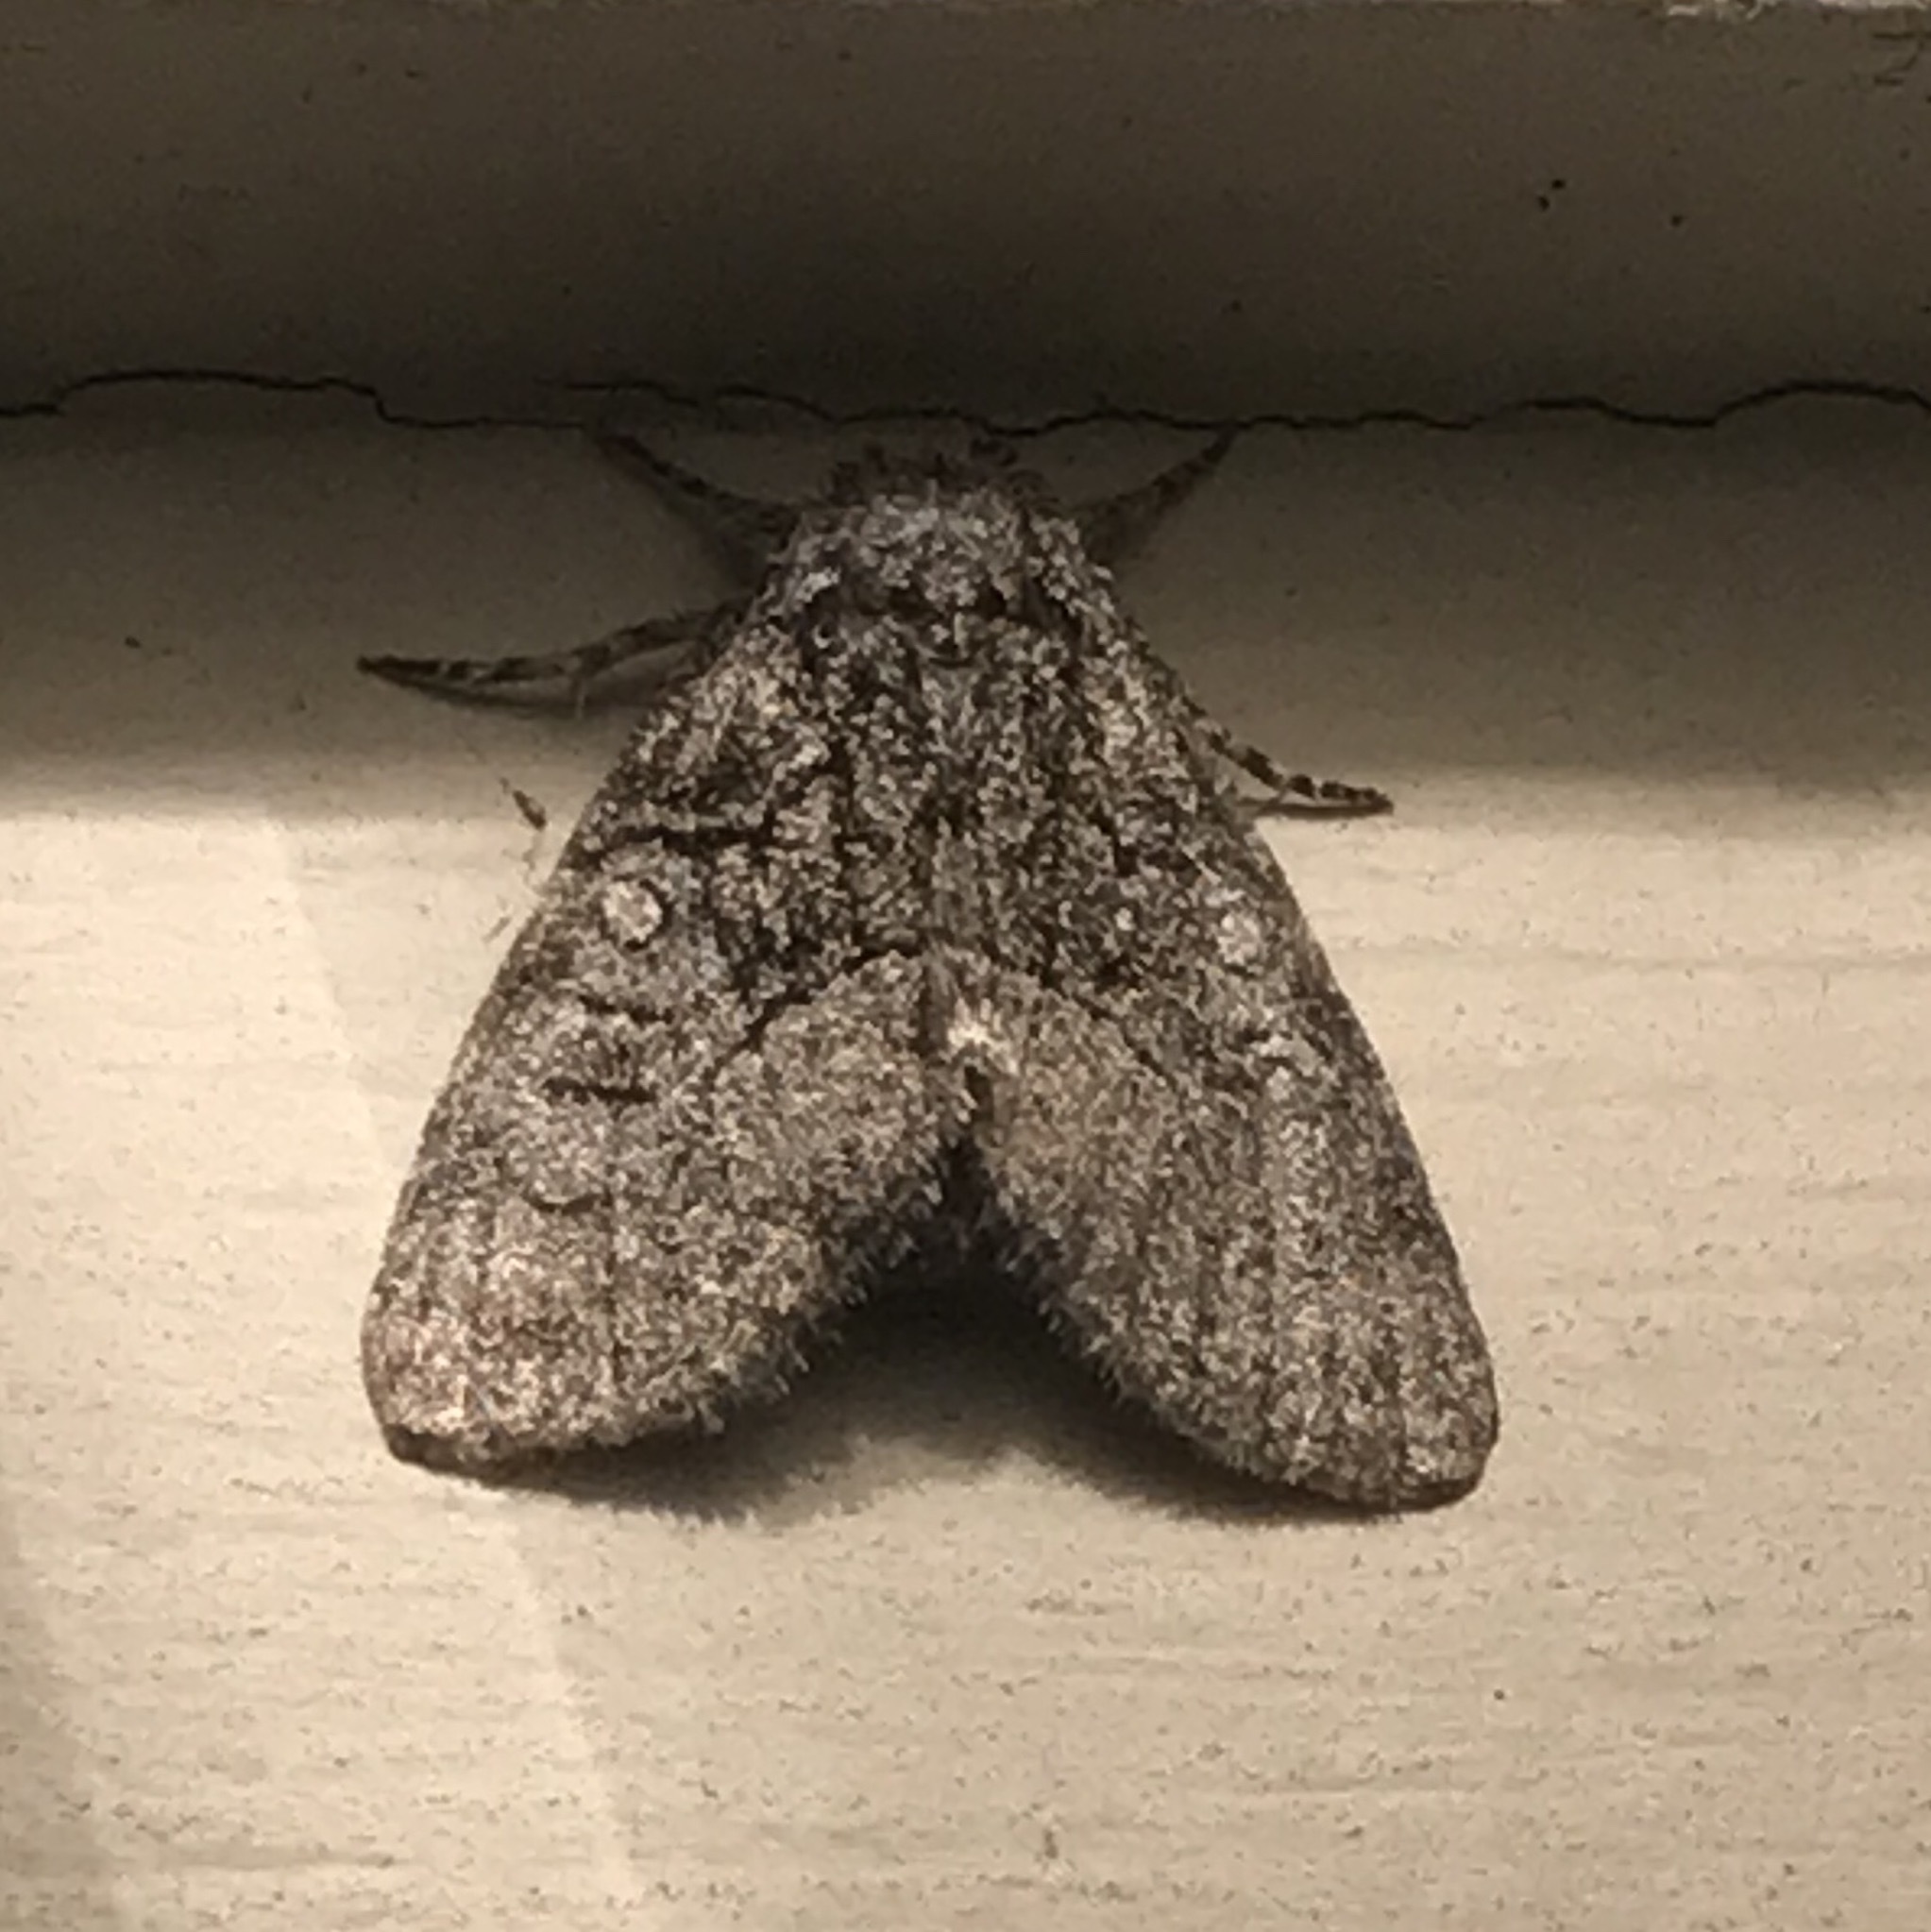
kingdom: Animalia
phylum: Arthropoda
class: Insecta
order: Lepidoptera
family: Noctuidae
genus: Raphia
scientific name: Raphia frater
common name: Brother
